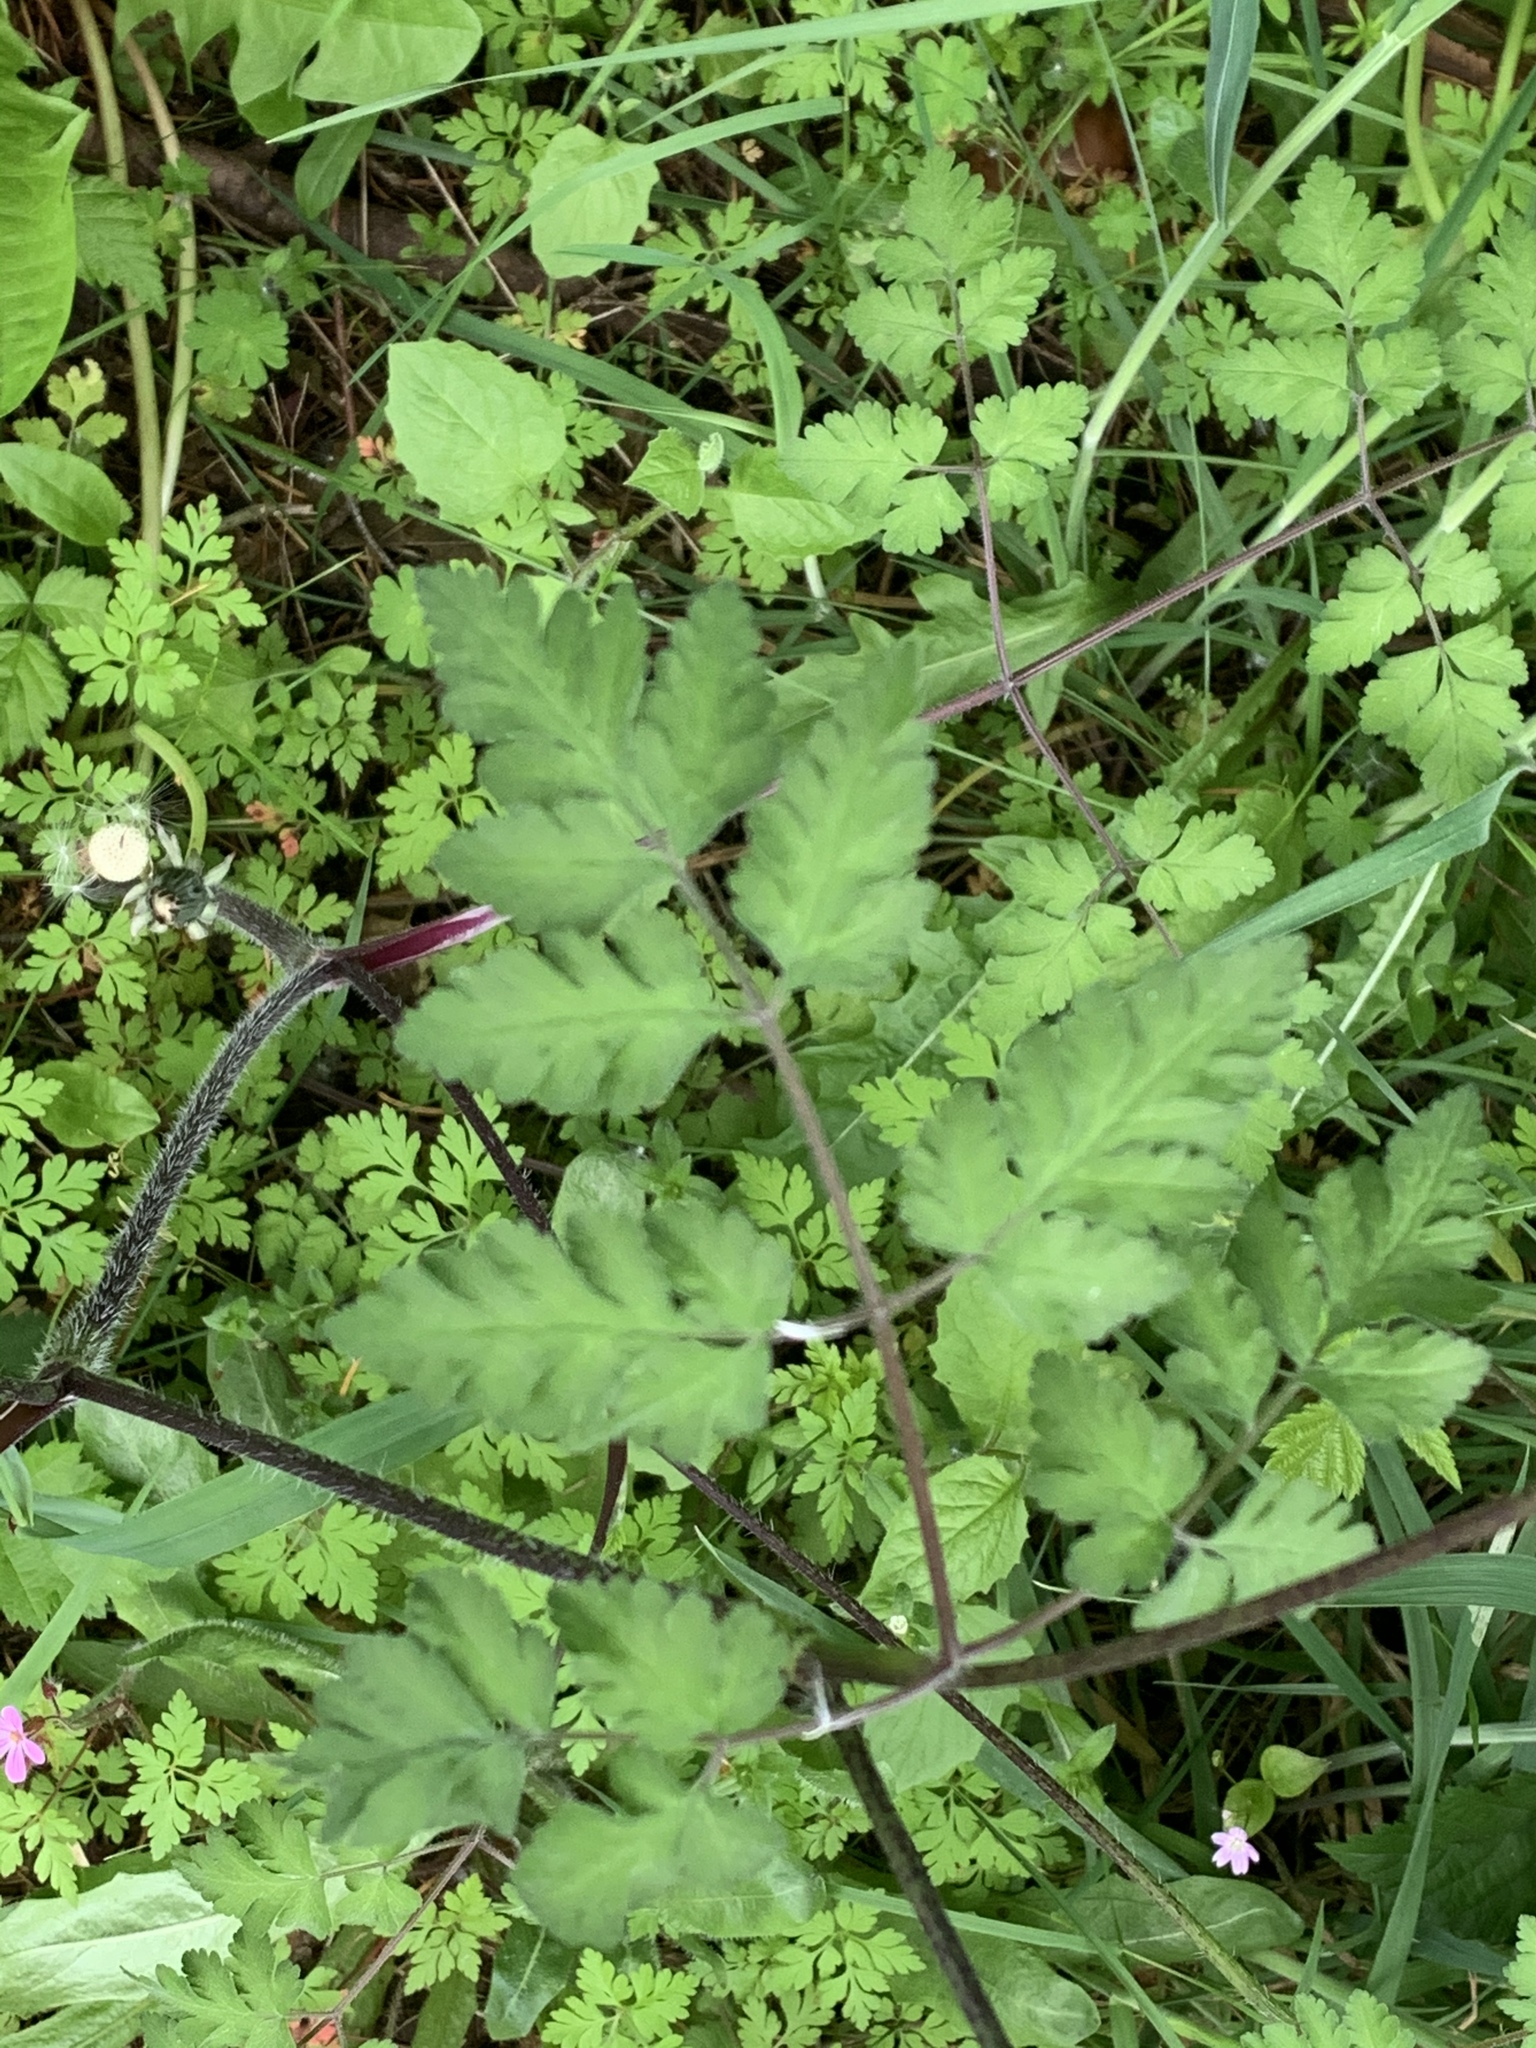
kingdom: Plantae
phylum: Tracheophyta
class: Magnoliopsida
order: Apiales
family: Apiaceae
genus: Chaerophyllum
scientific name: Chaerophyllum temulum
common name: Rough chervil
